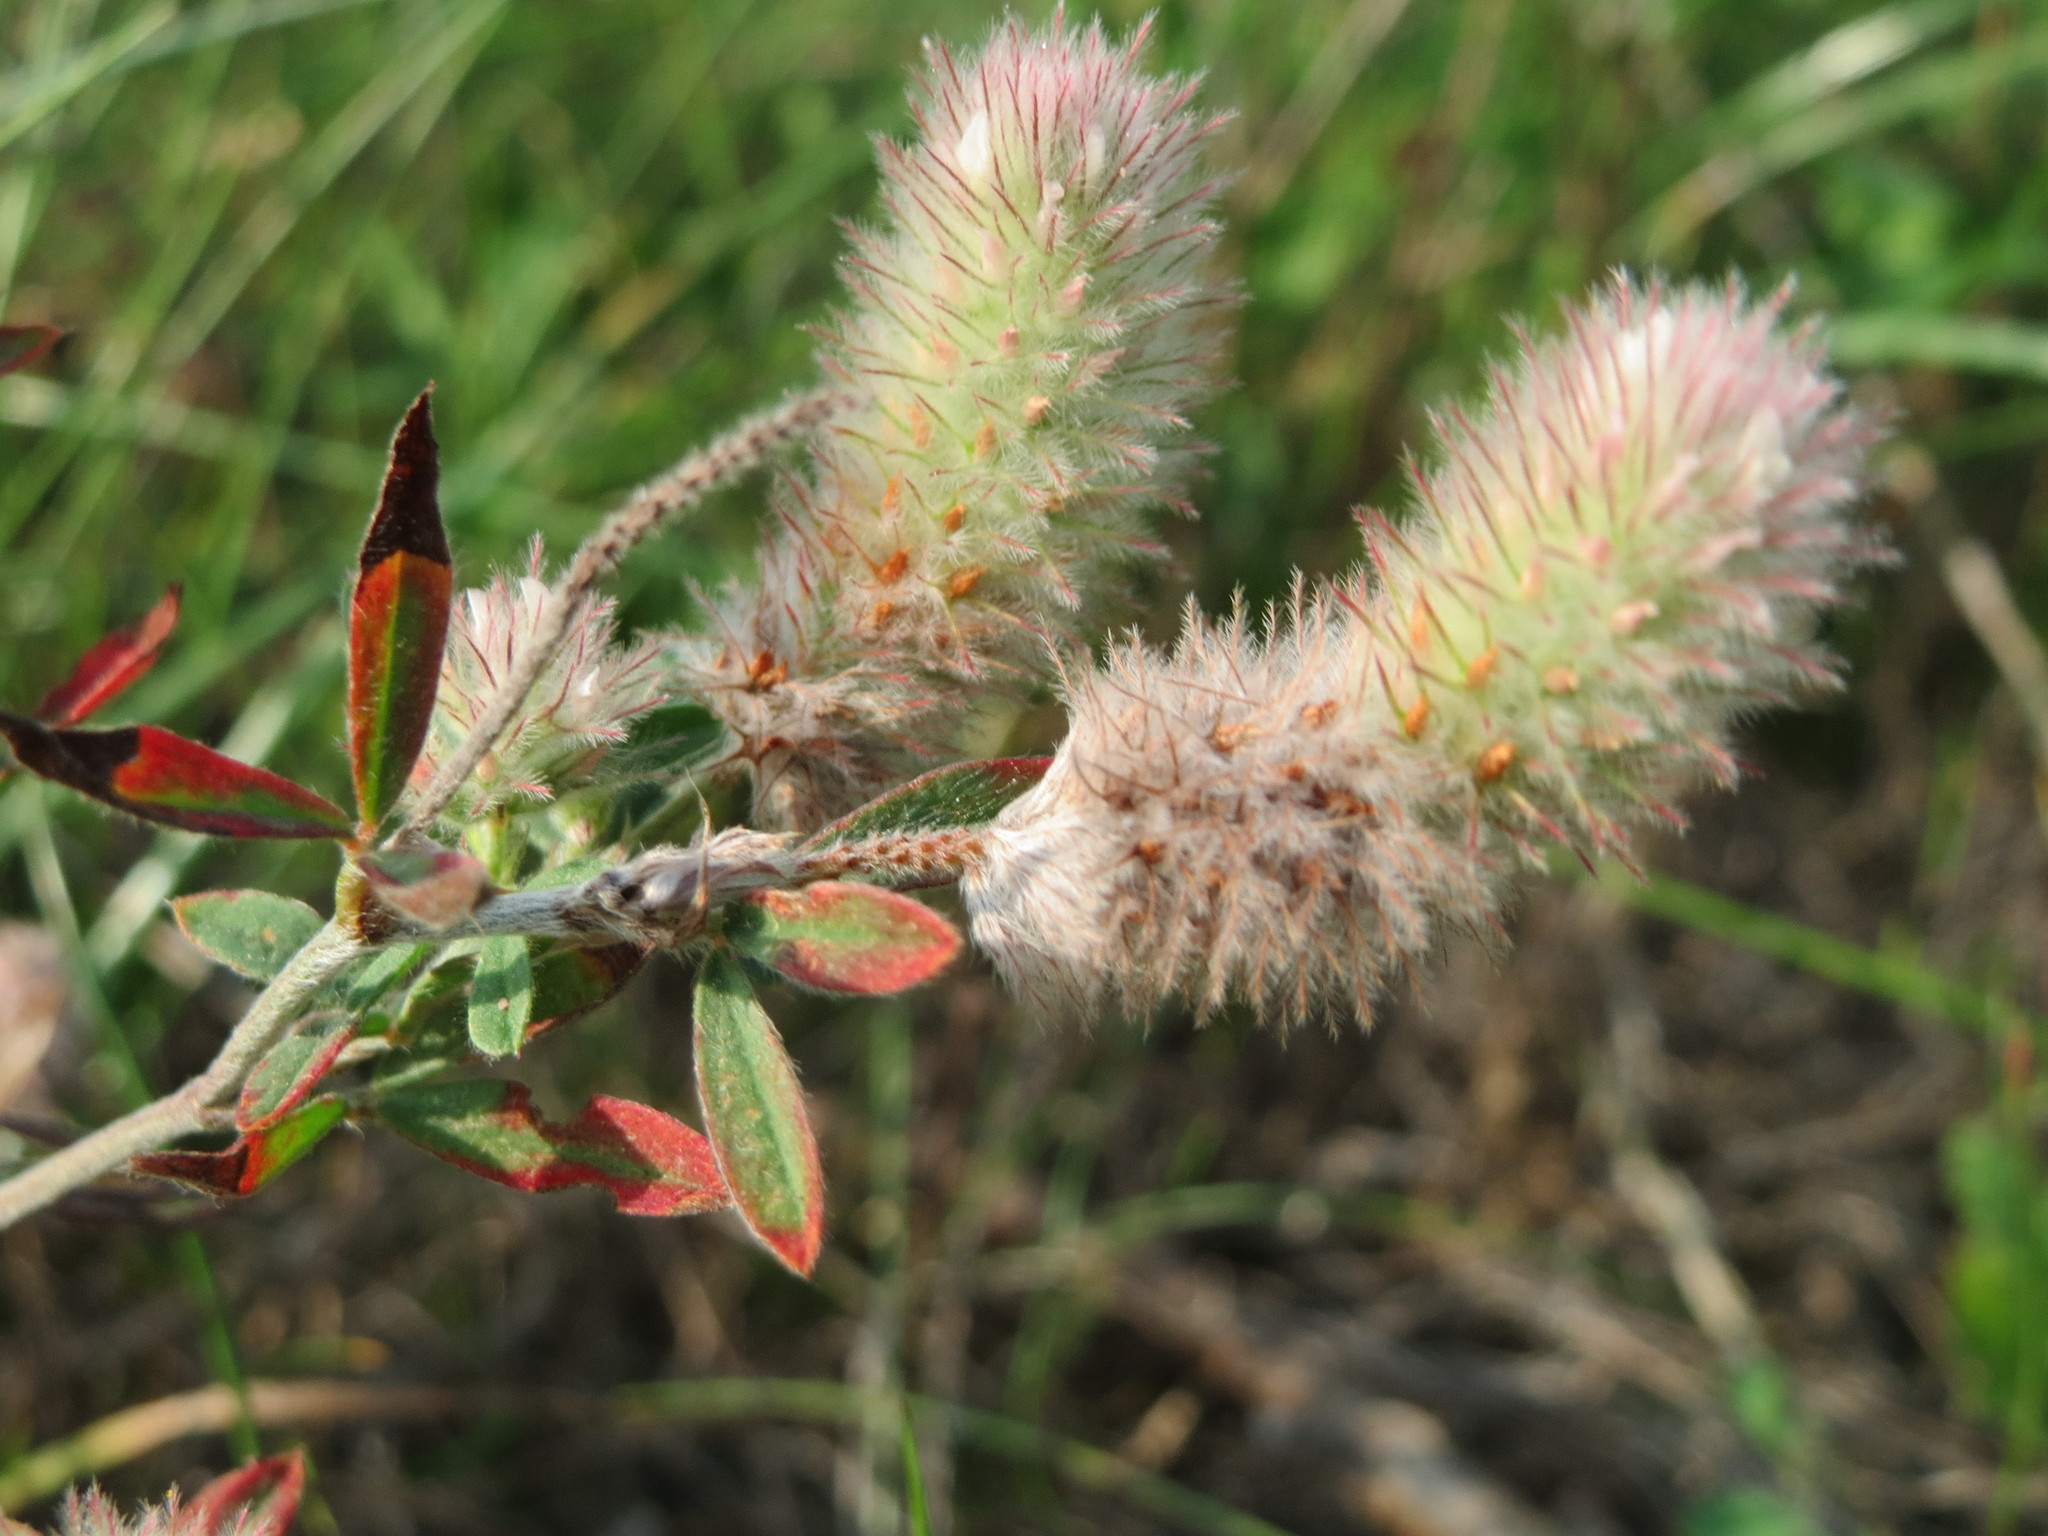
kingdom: Plantae
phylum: Tracheophyta
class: Magnoliopsida
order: Fabales
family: Fabaceae
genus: Trifolium
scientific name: Trifolium arvense
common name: Hare's-foot clover
